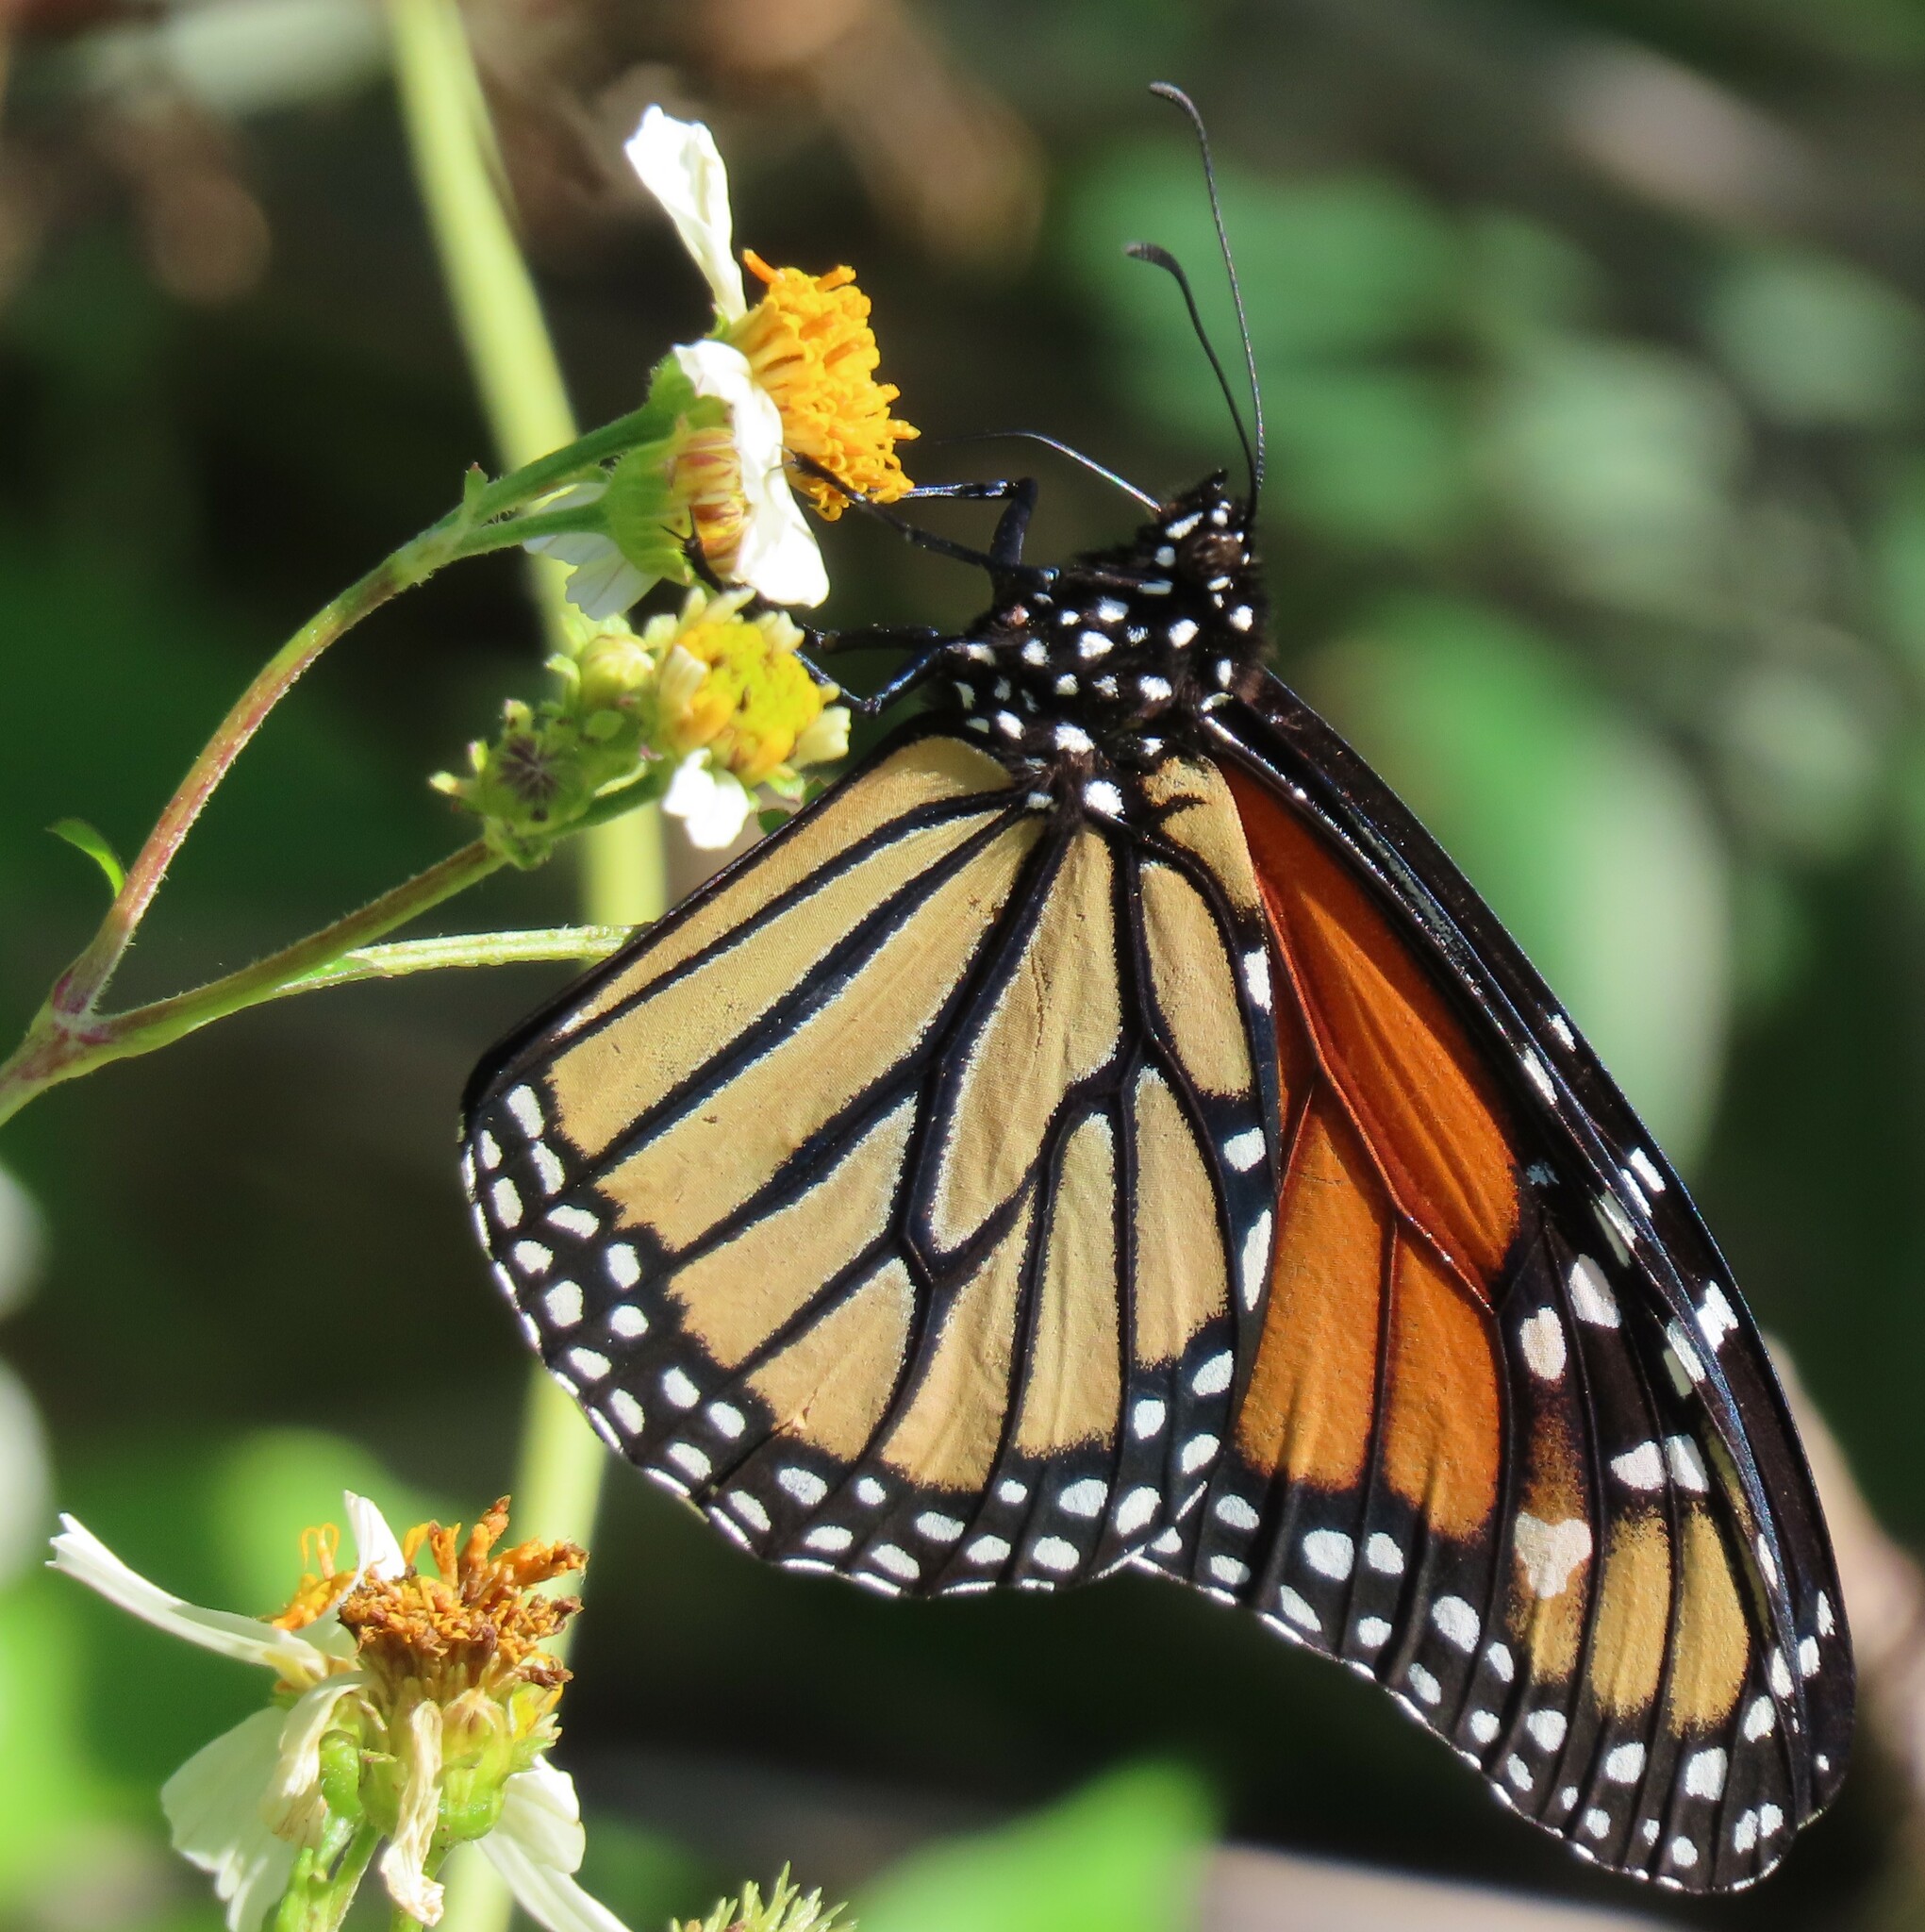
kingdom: Animalia
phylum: Arthropoda
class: Insecta
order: Lepidoptera
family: Nymphalidae
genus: Danaus
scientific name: Danaus plexippus
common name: Monarch
